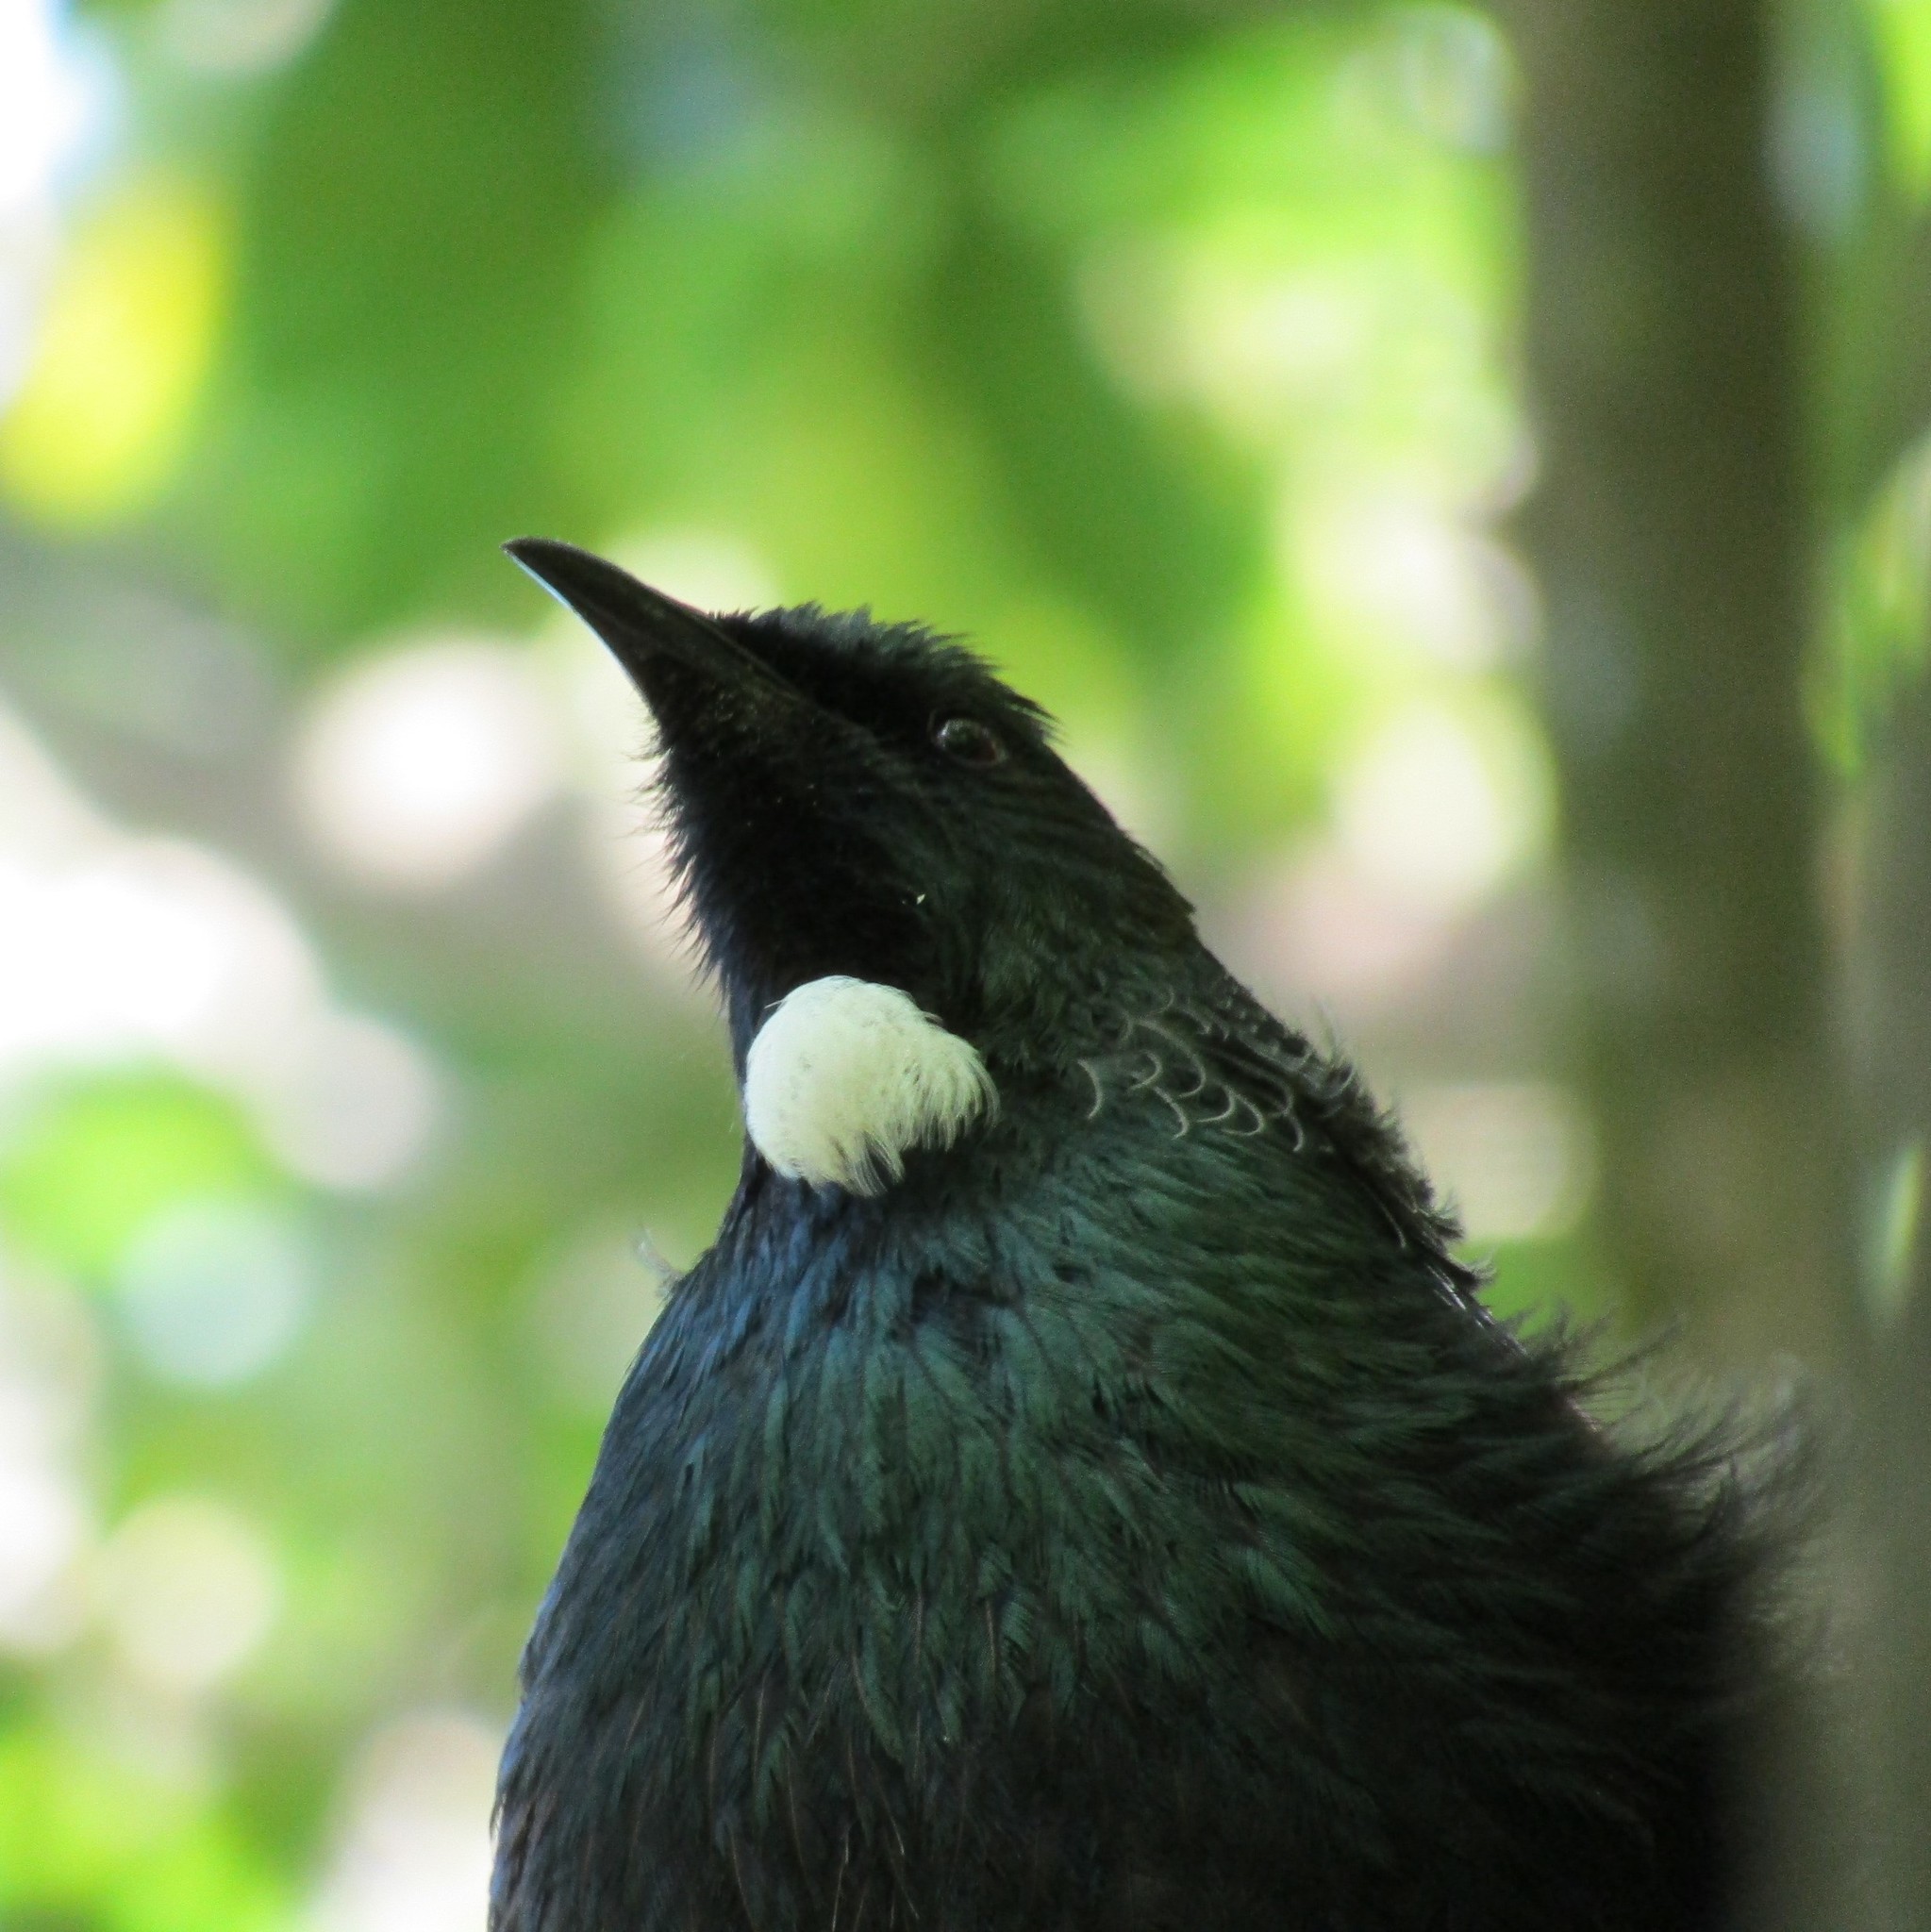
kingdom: Animalia
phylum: Chordata
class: Aves
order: Passeriformes
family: Meliphagidae
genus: Prosthemadera
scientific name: Prosthemadera novaeseelandiae
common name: Tui
